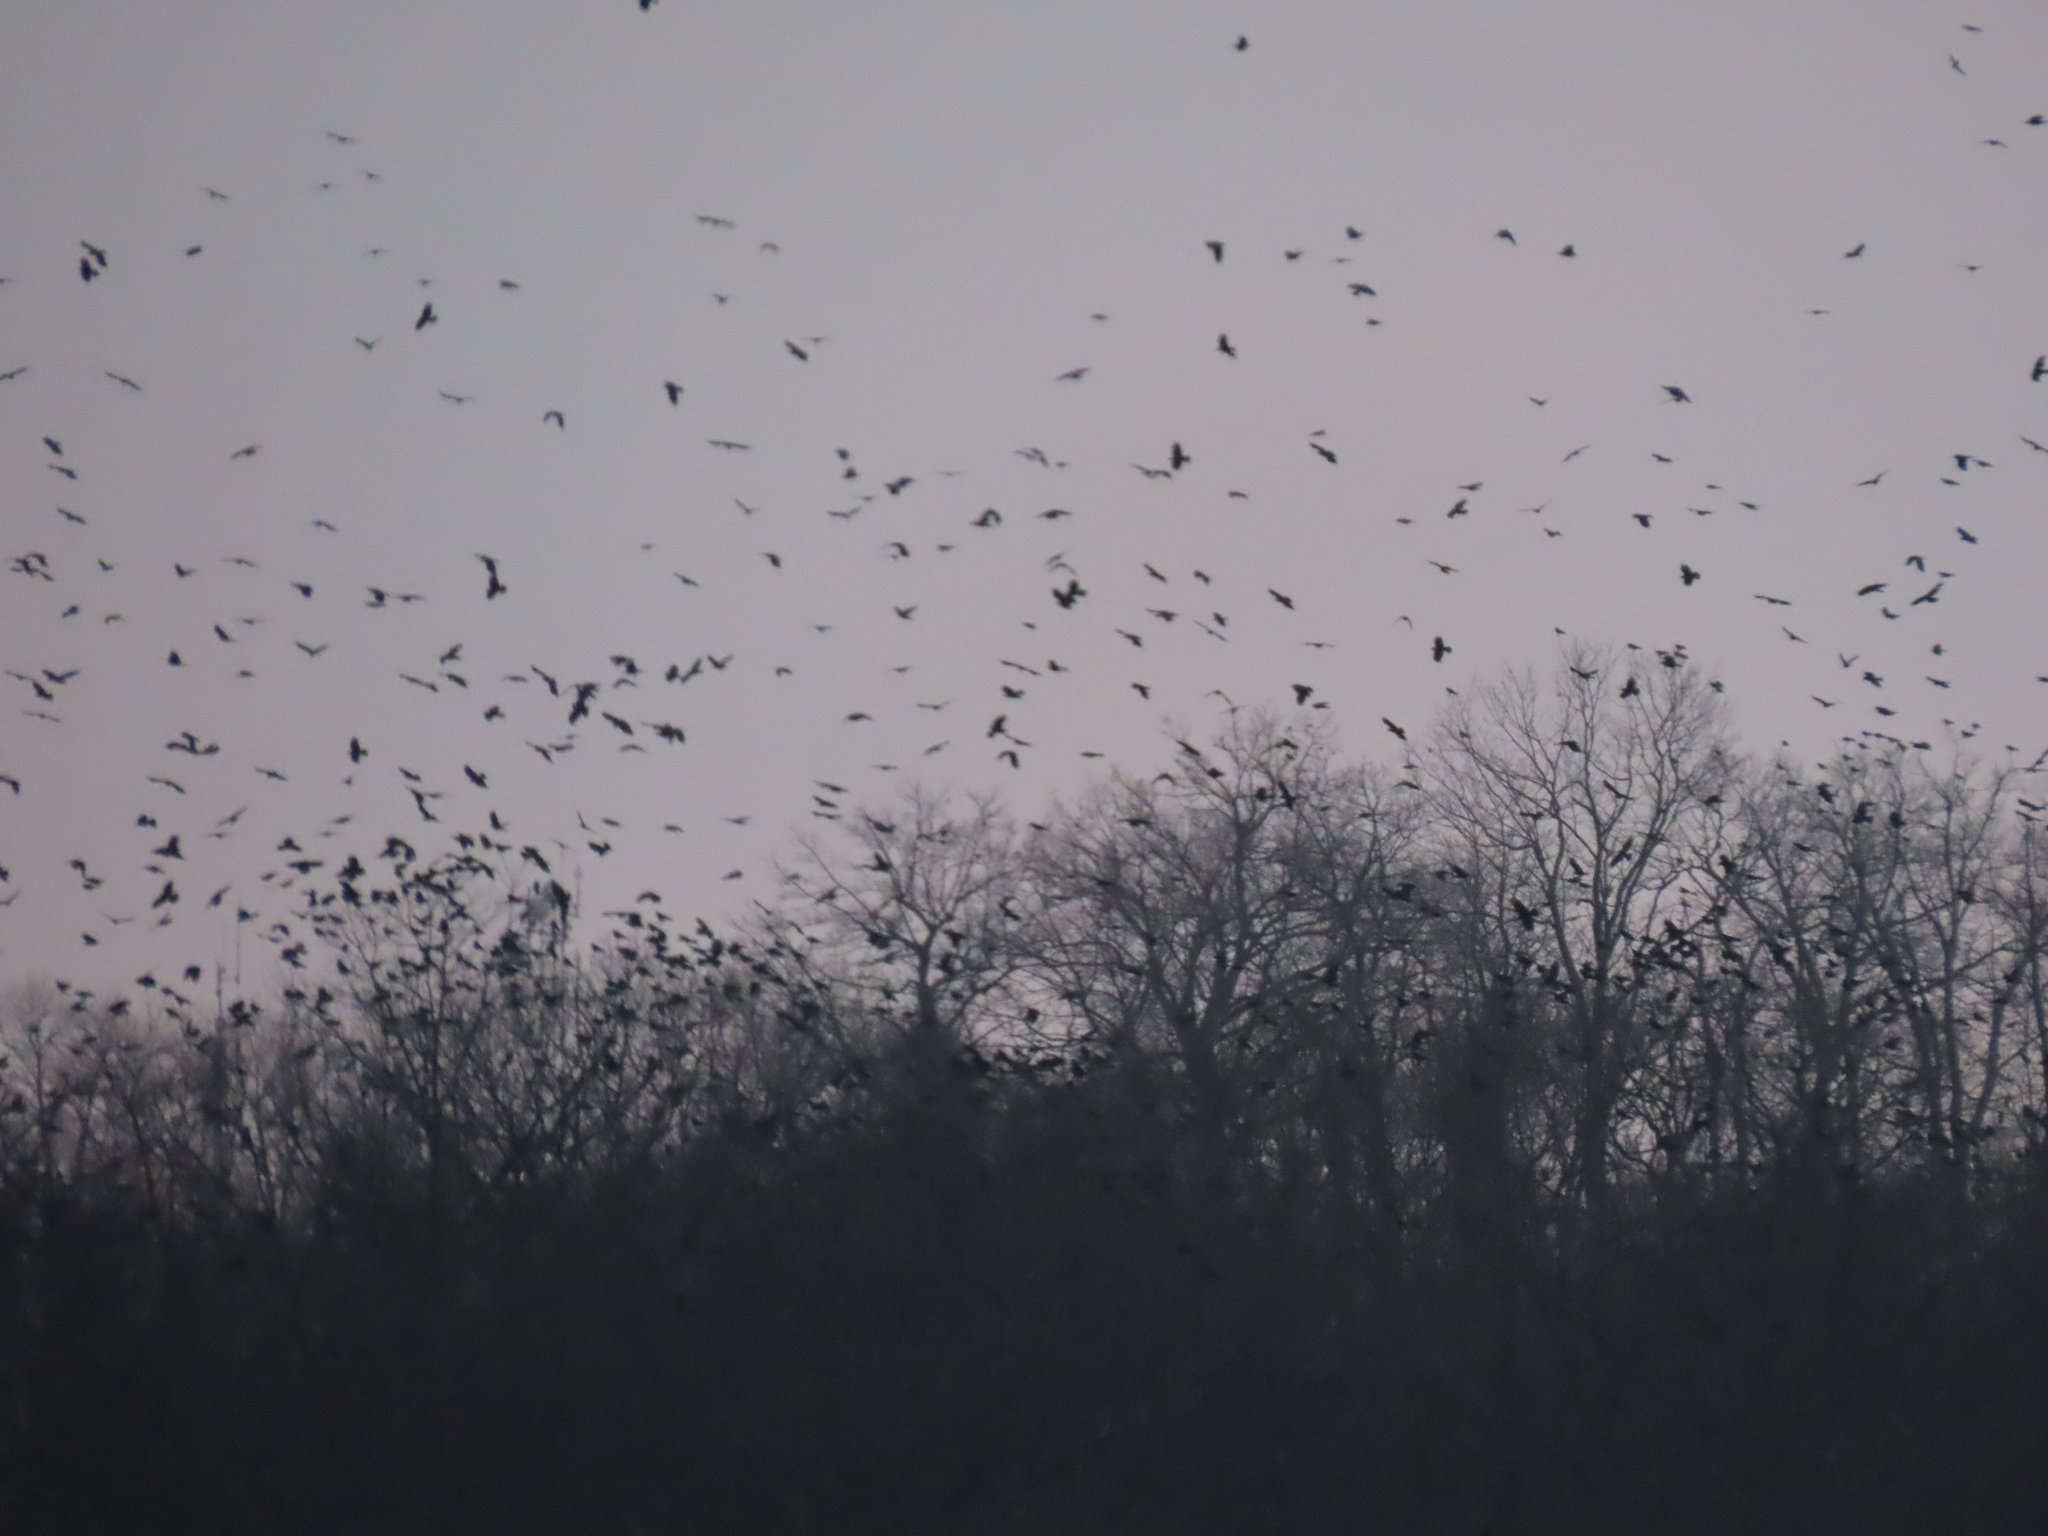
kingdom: Animalia
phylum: Chordata
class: Aves
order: Passeriformes
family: Corvidae
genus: Corvus
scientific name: Corvus brachyrhynchos
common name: American crow
